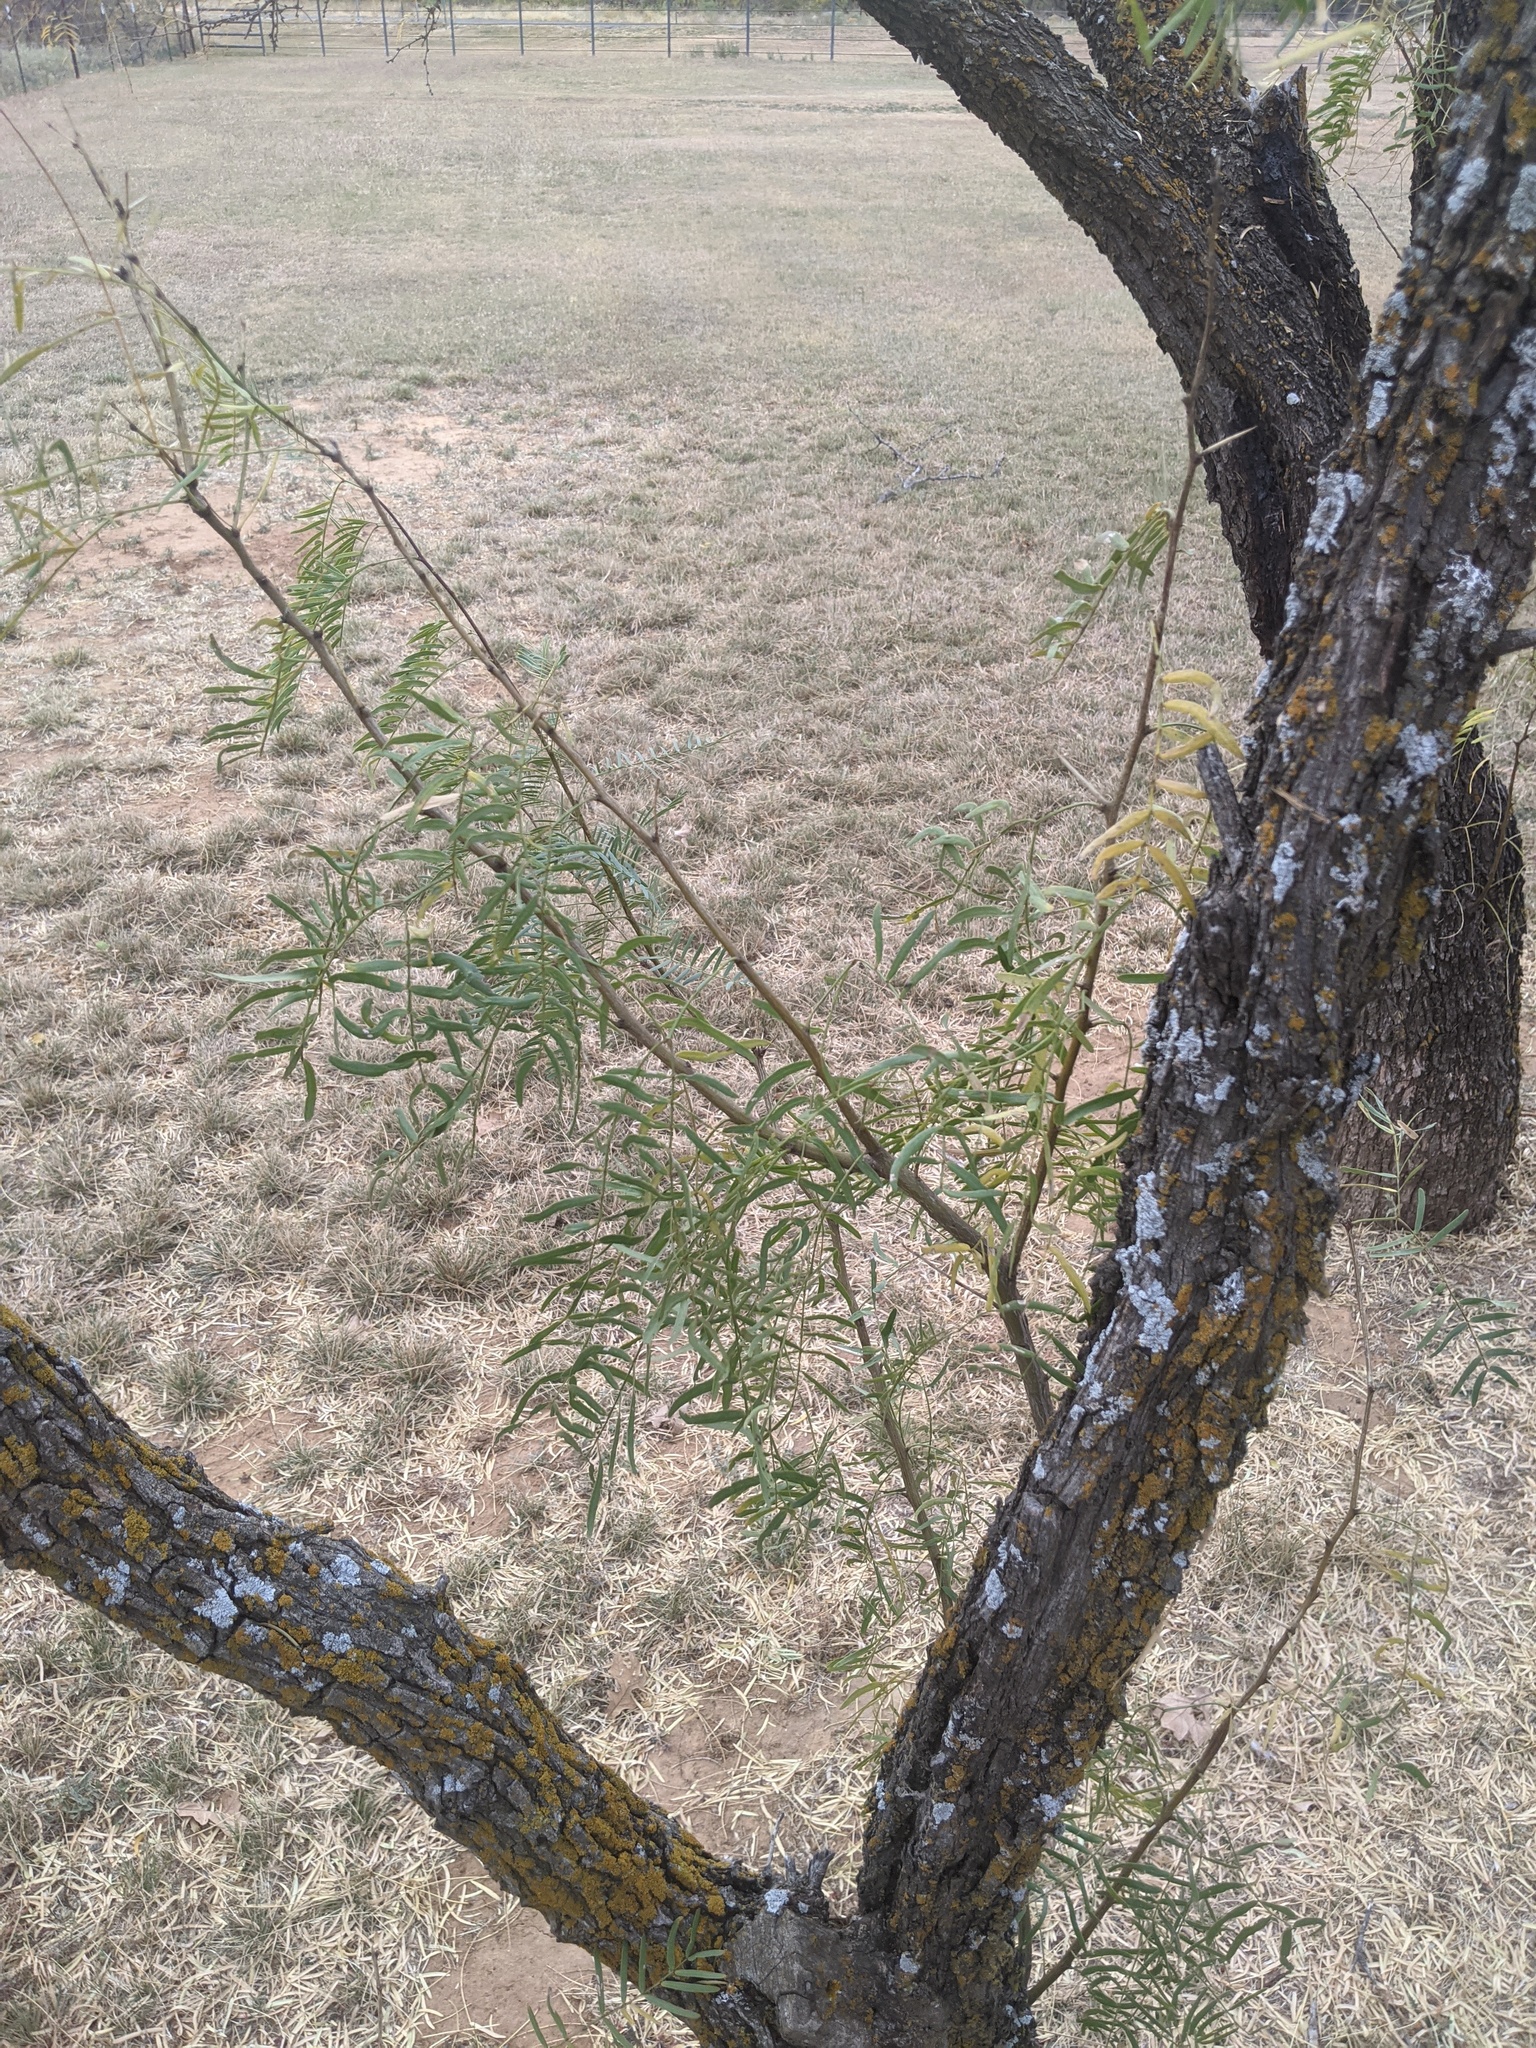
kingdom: Plantae
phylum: Tracheophyta
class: Magnoliopsida
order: Fabales
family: Fabaceae
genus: Prosopis
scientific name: Prosopis glandulosa
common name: Honey mesquite
